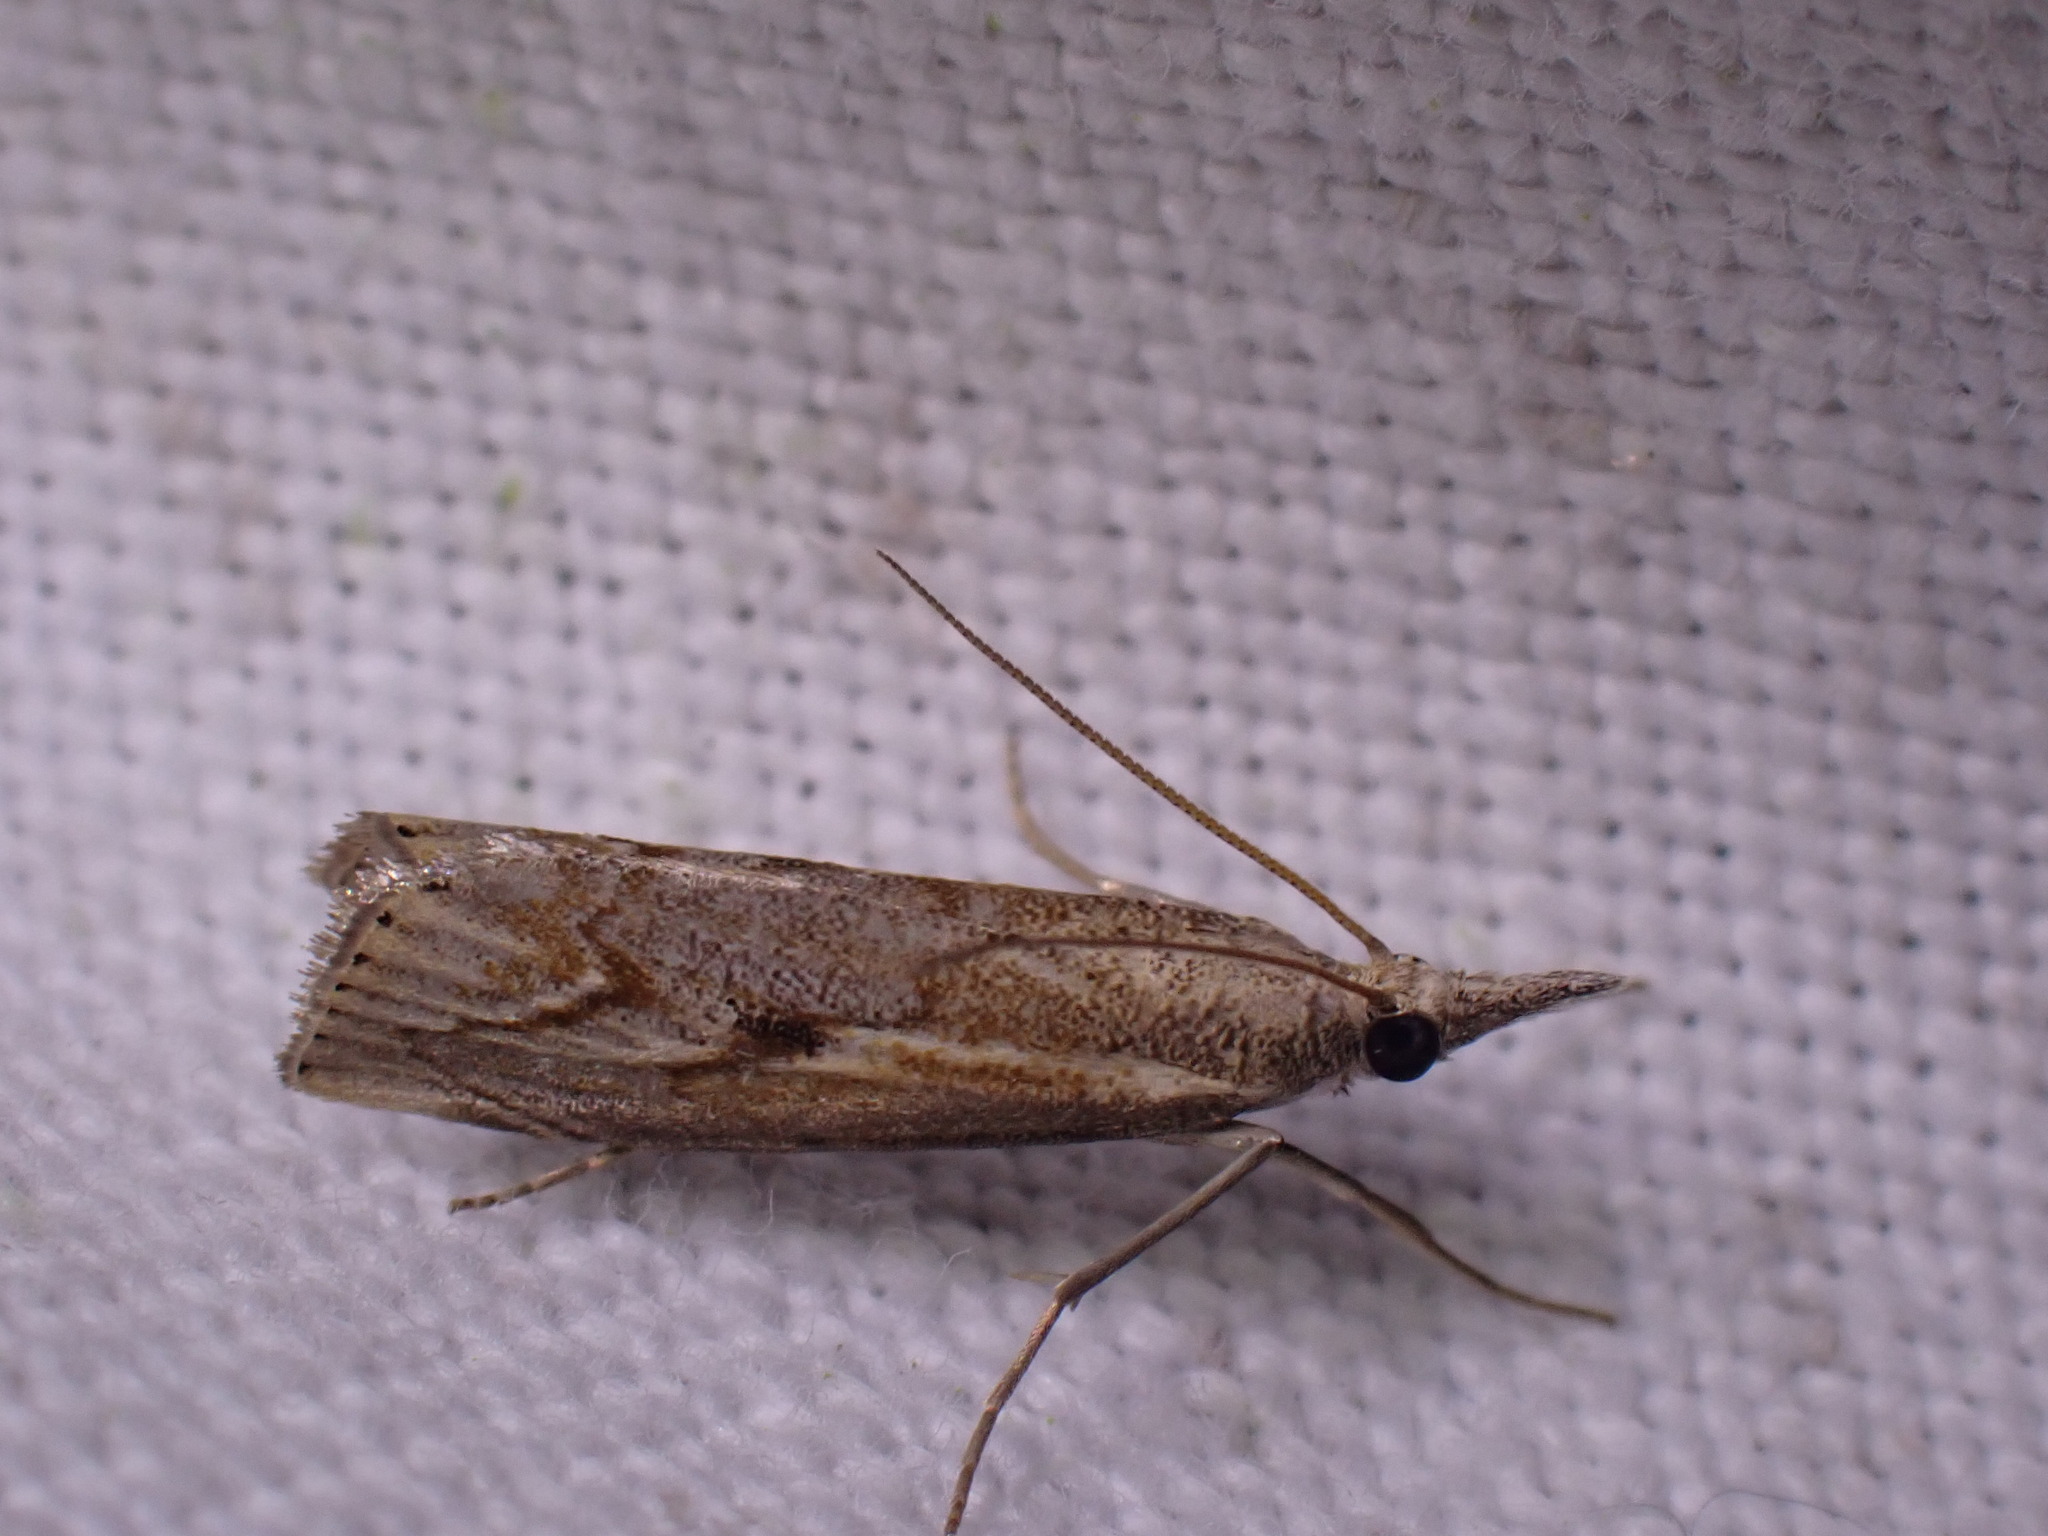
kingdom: Animalia
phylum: Arthropoda
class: Insecta
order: Lepidoptera
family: Crambidae
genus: Agriphila
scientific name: Agriphila geniculea
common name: Elbow-stripe grass-veneer
